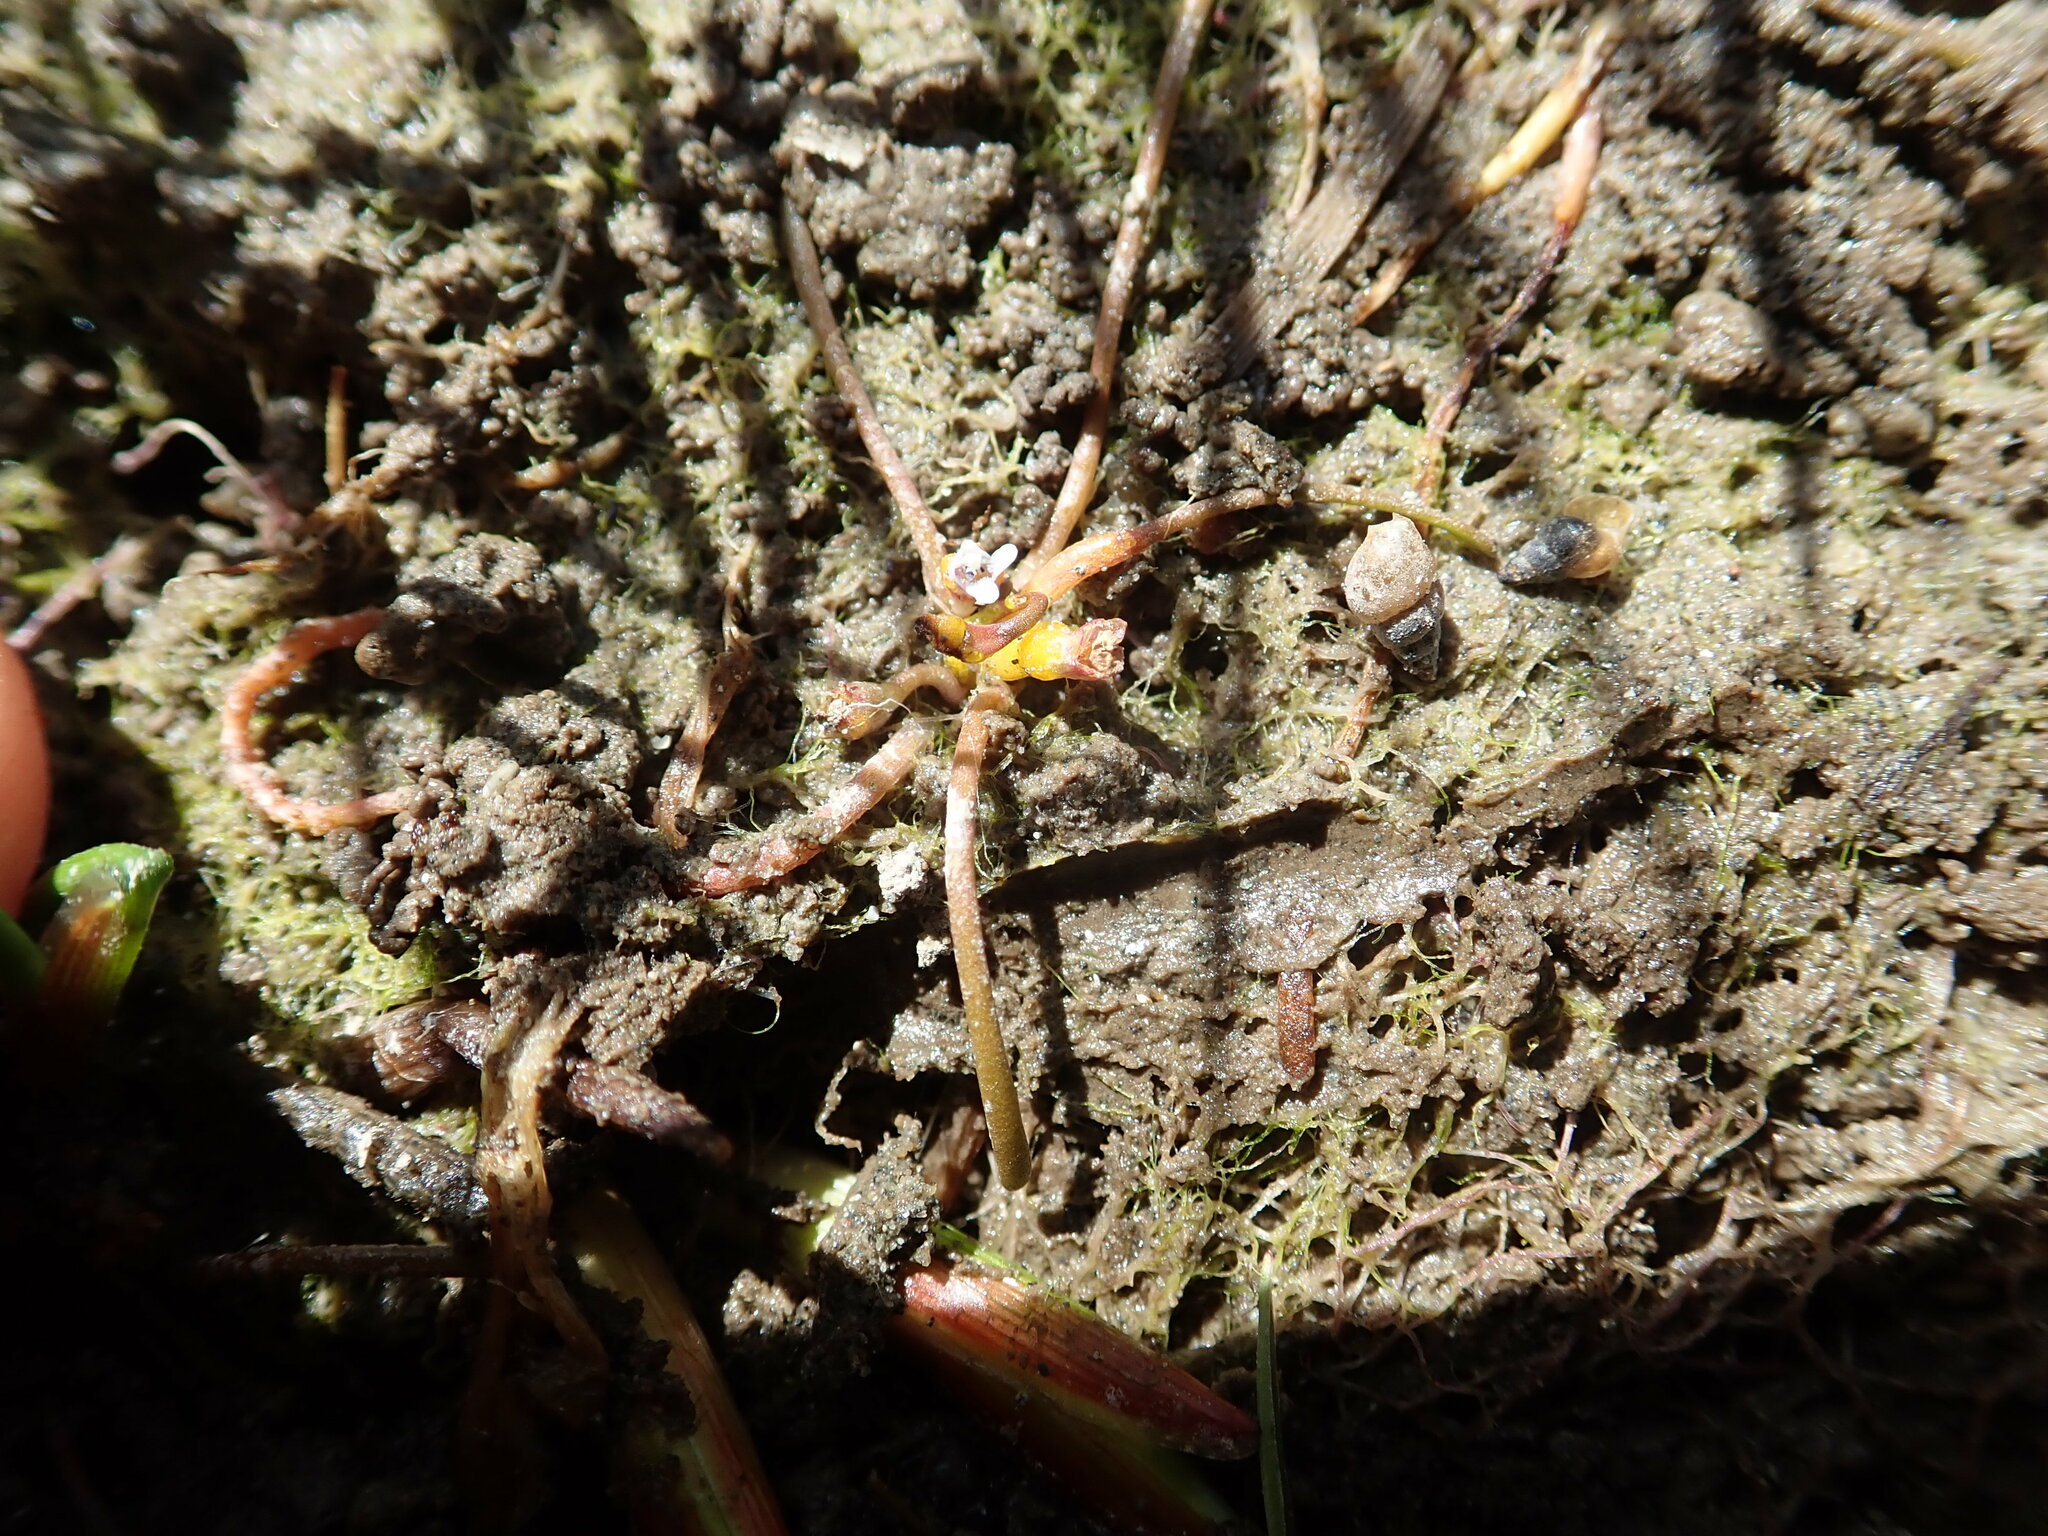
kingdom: Plantae
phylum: Tracheophyta
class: Magnoliopsida
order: Lamiales
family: Scrophulariaceae
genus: Limosella
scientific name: Limosella australis
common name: Welsh mudwort
